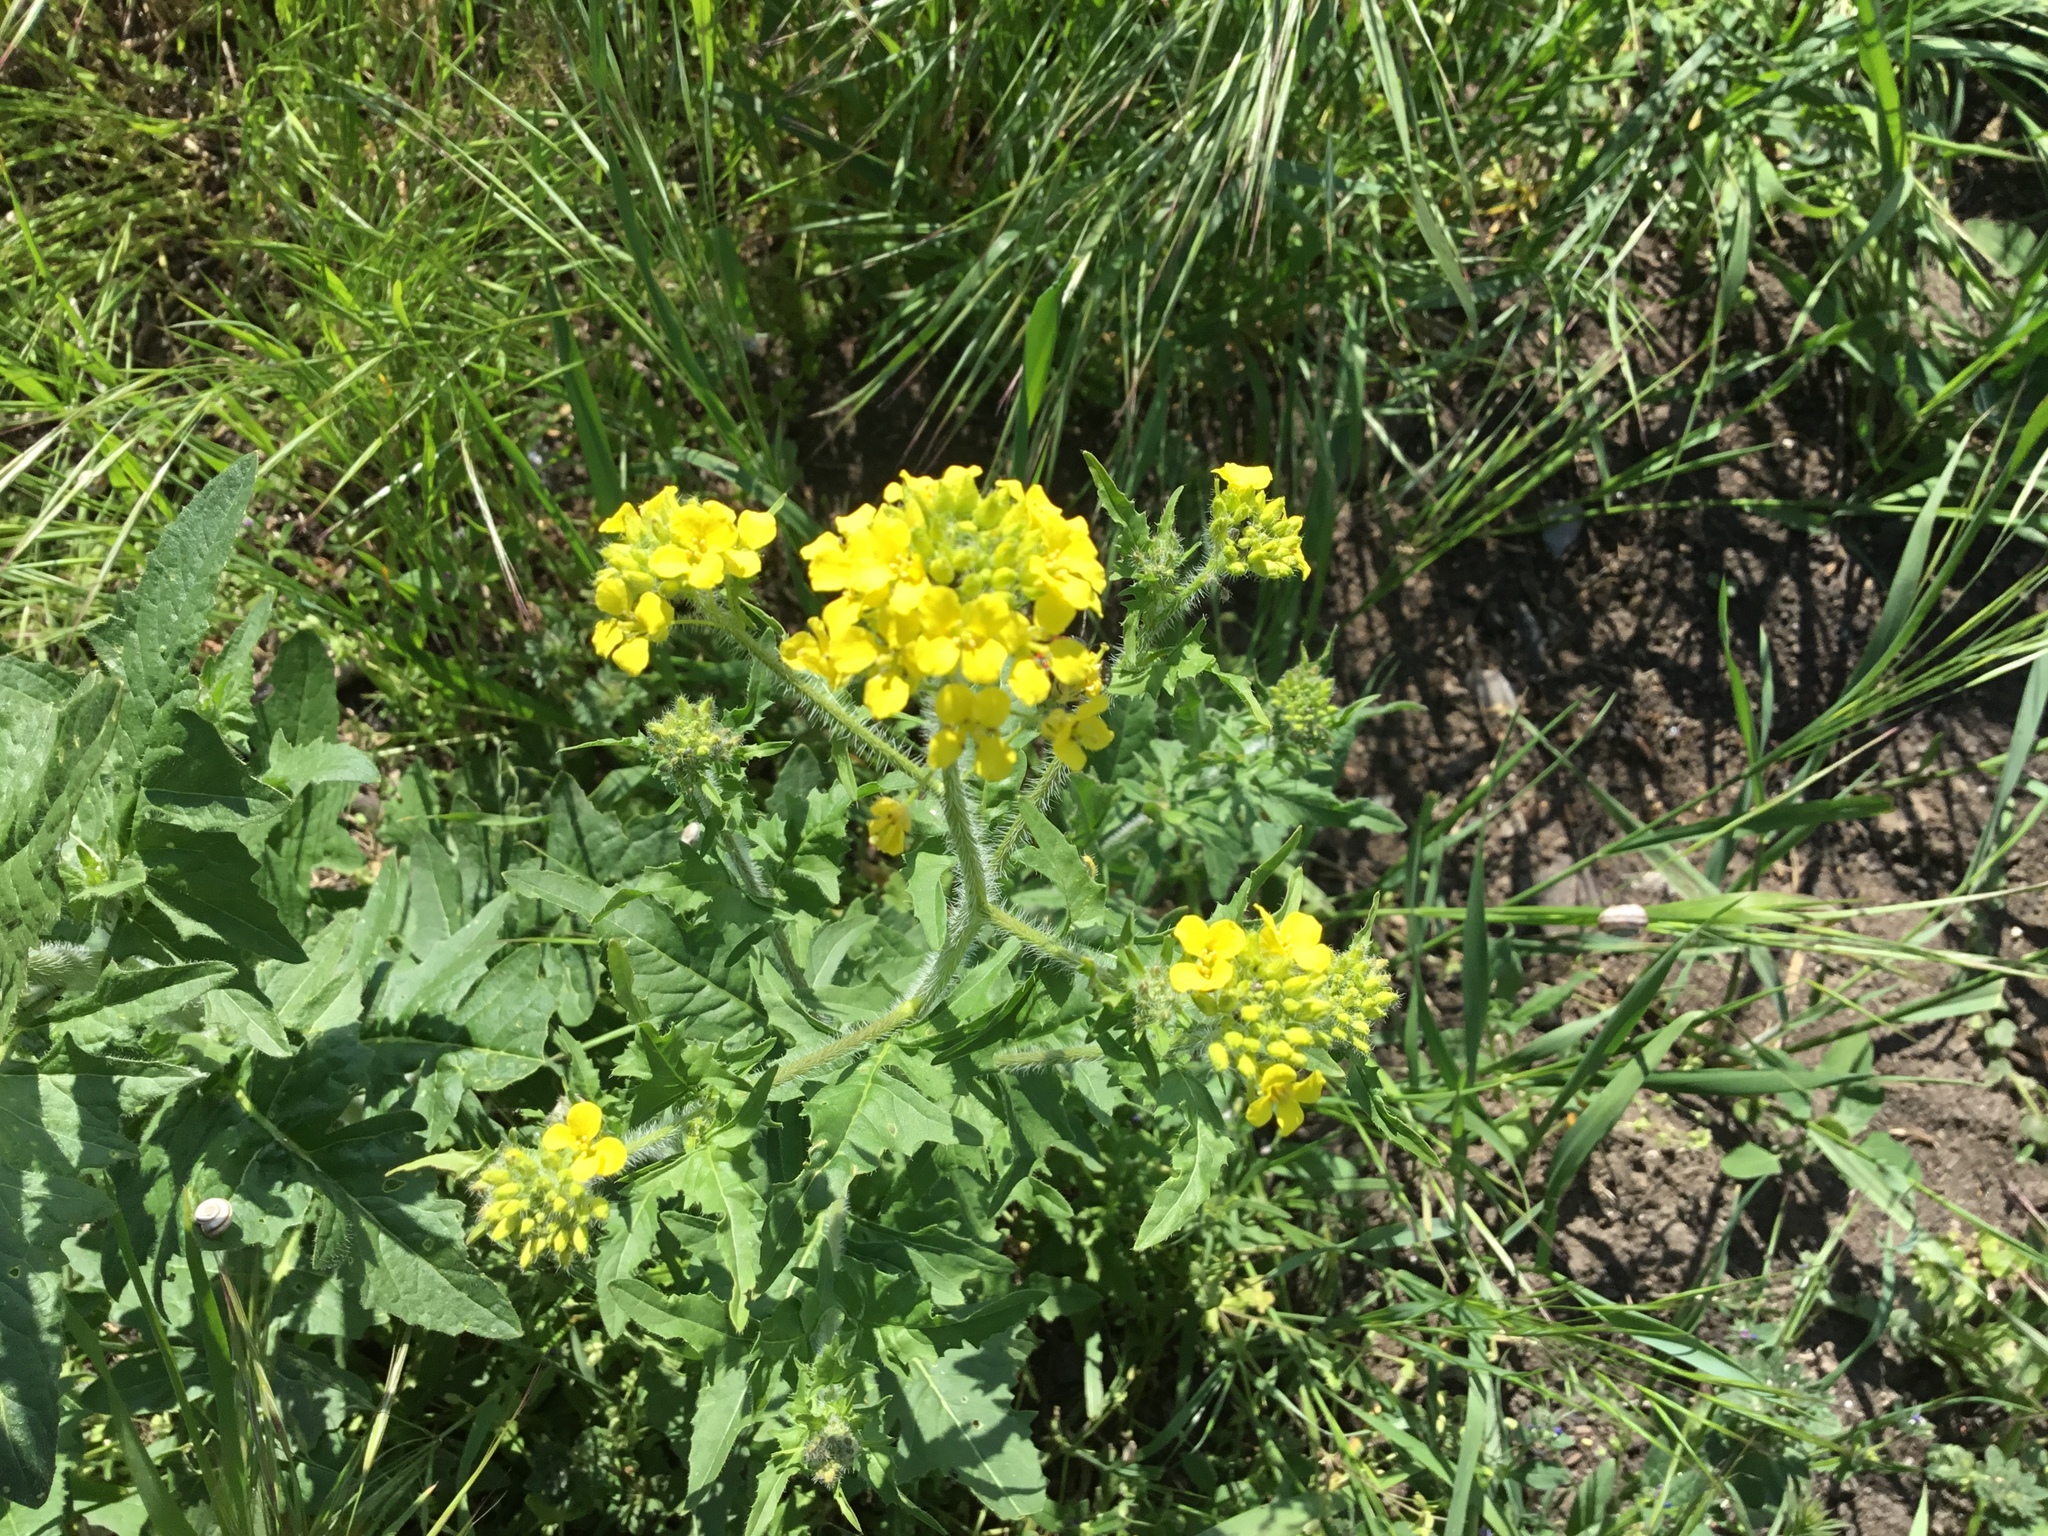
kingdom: Plantae
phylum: Tracheophyta
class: Magnoliopsida
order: Brassicales
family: Brassicaceae
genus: Sisymbrium
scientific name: Sisymbrium loeselii
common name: False london-rocket
